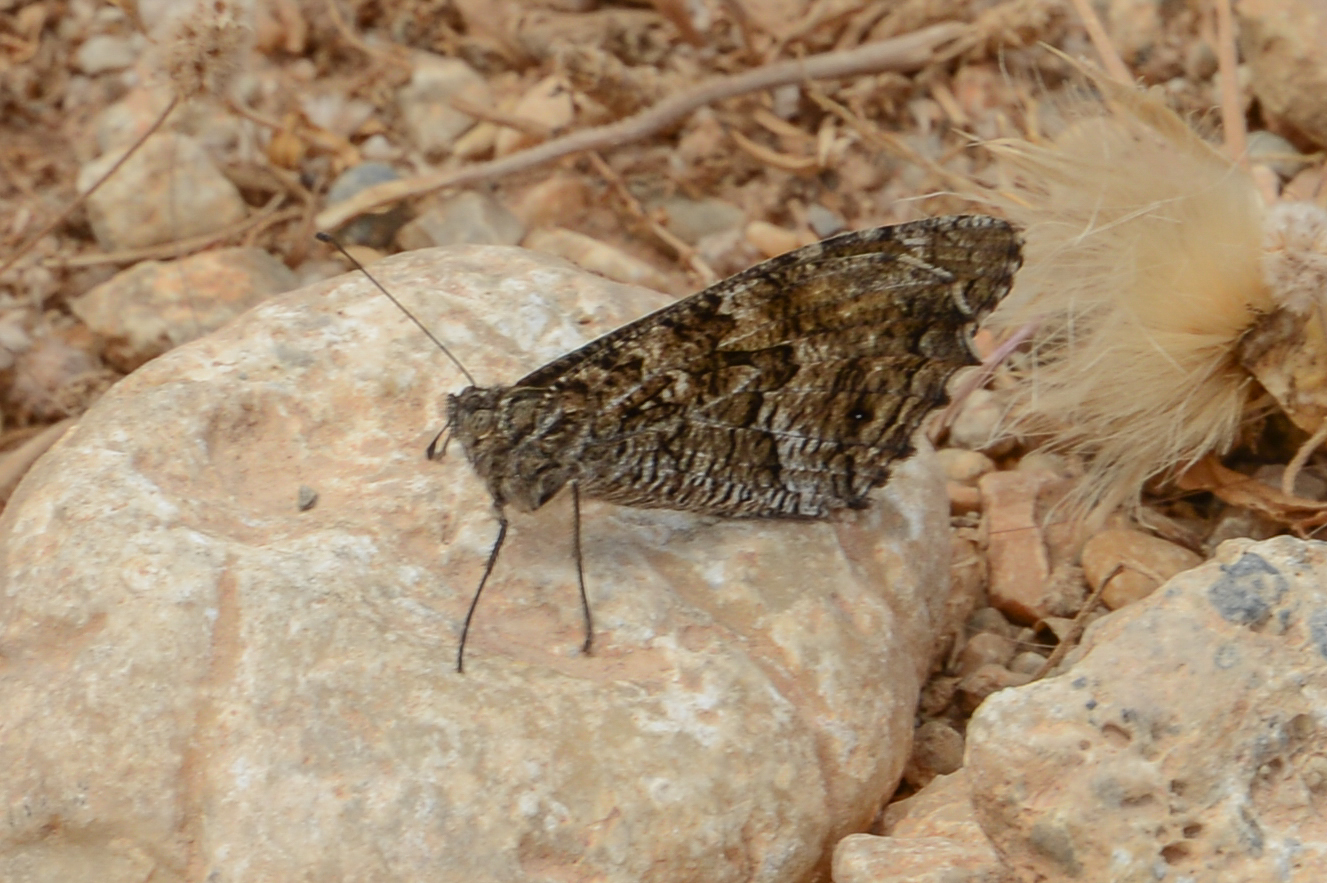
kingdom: Animalia
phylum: Arthropoda
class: Insecta
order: Lepidoptera
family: Nymphalidae
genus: Hipparchia
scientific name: Hipparchia cretica
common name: Cretan grayling
